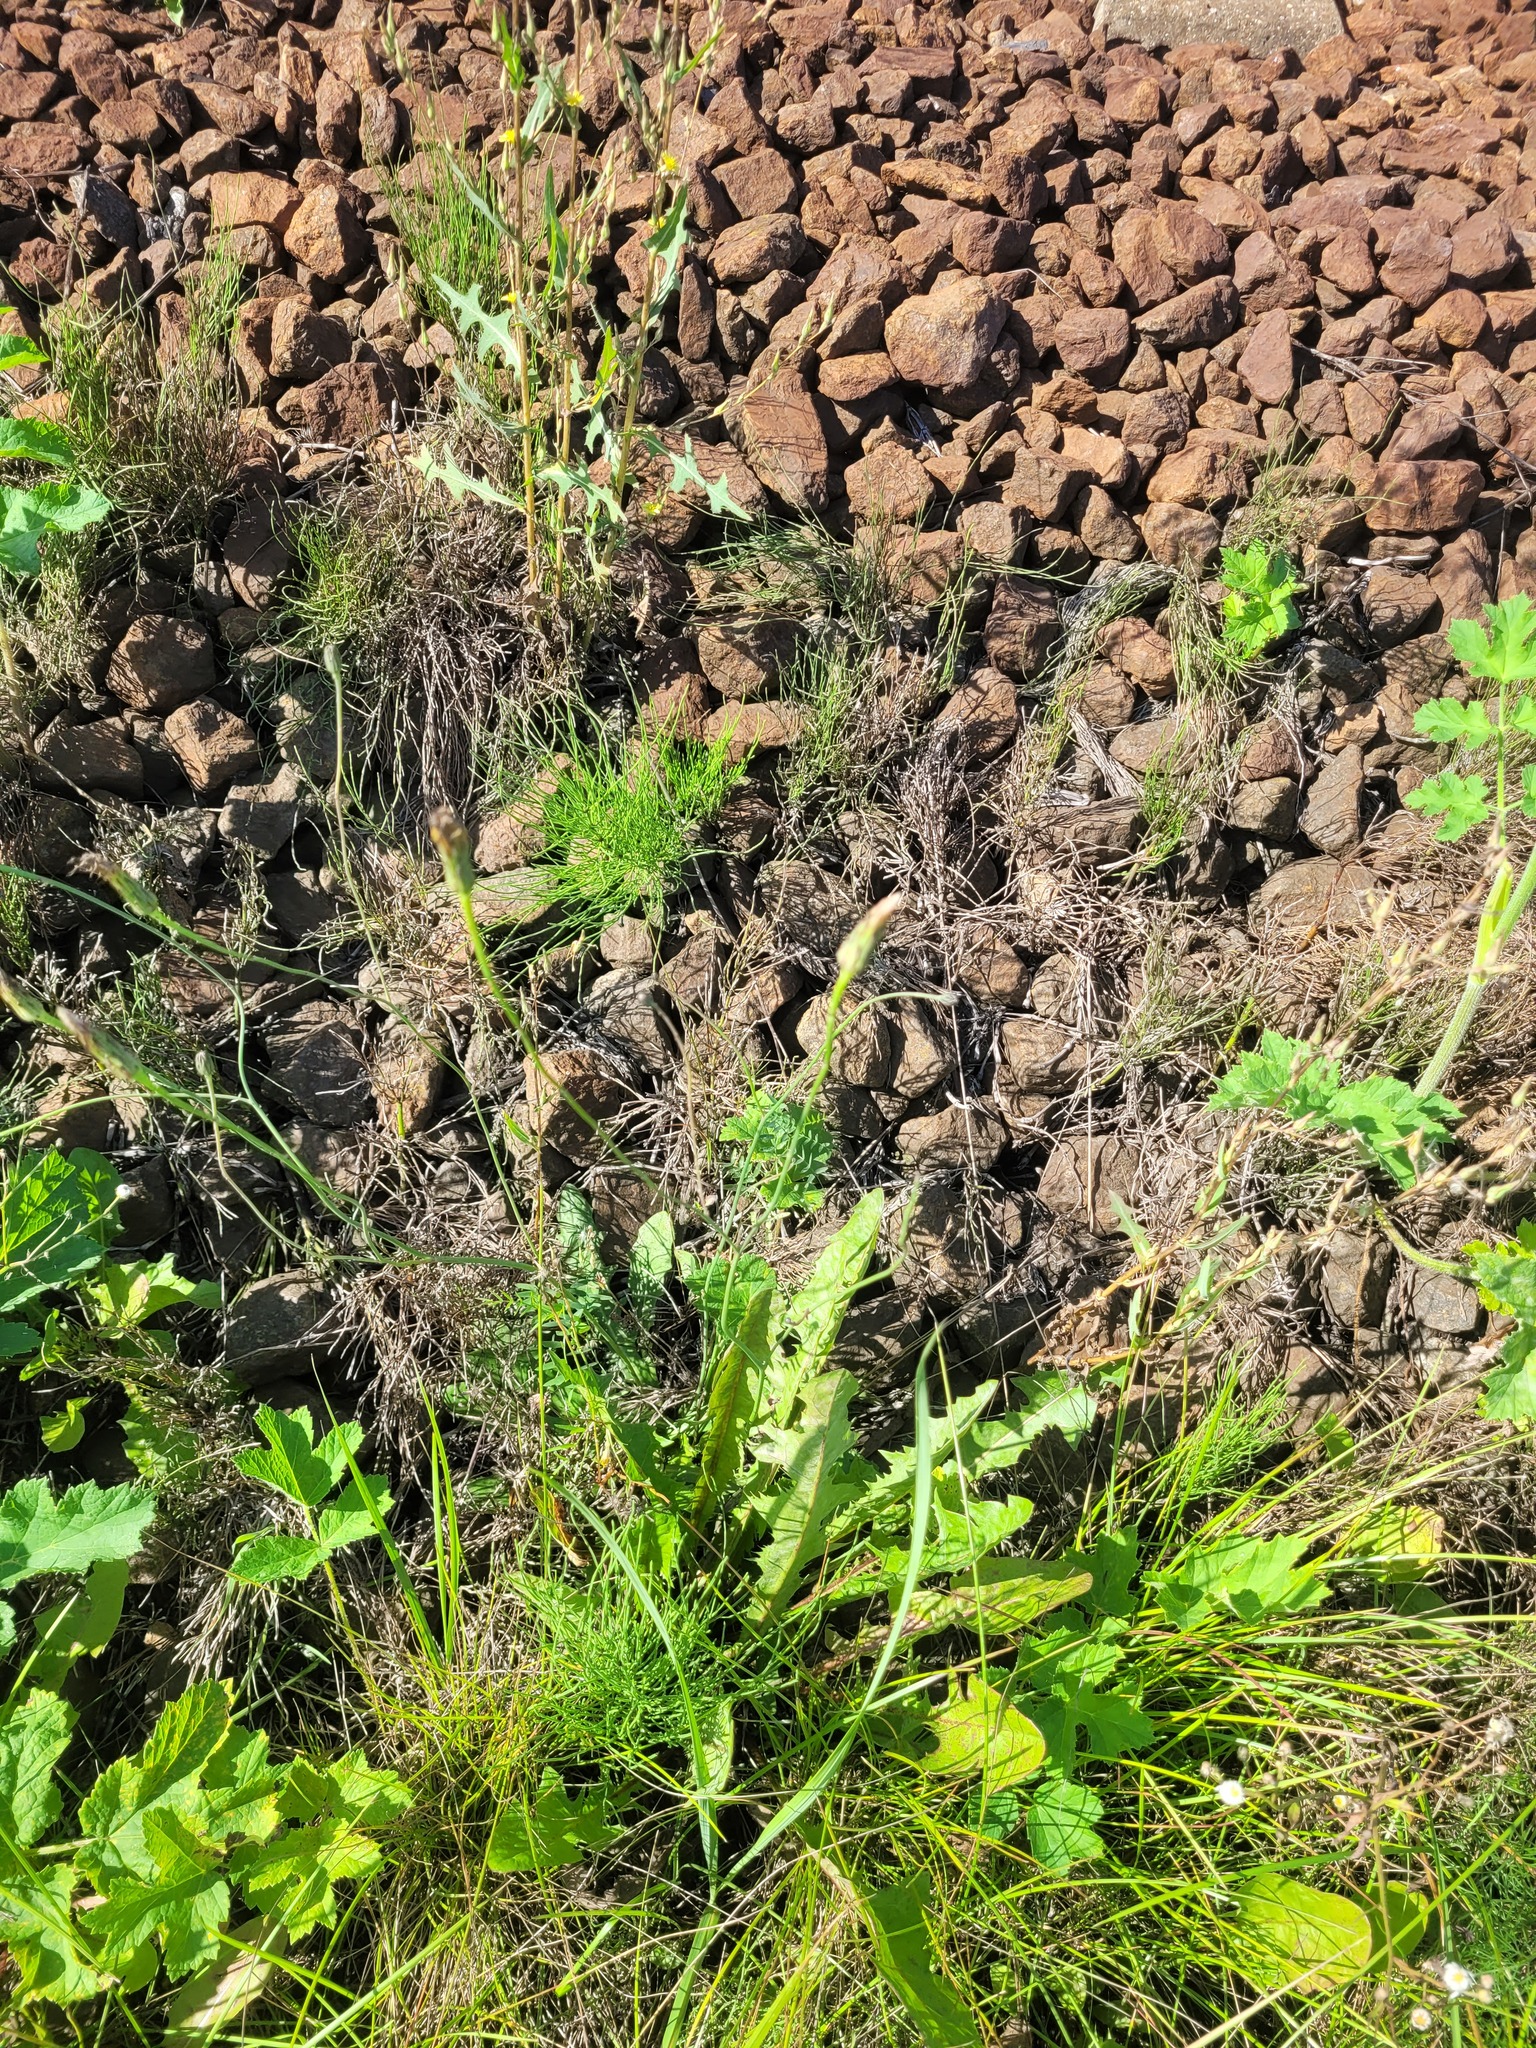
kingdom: Plantae
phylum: Tracheophyta
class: Magnoliopsida
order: Asterales
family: Asteraceae
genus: Hypochaeris
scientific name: Hypochaeris radicata
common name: Flatweed
